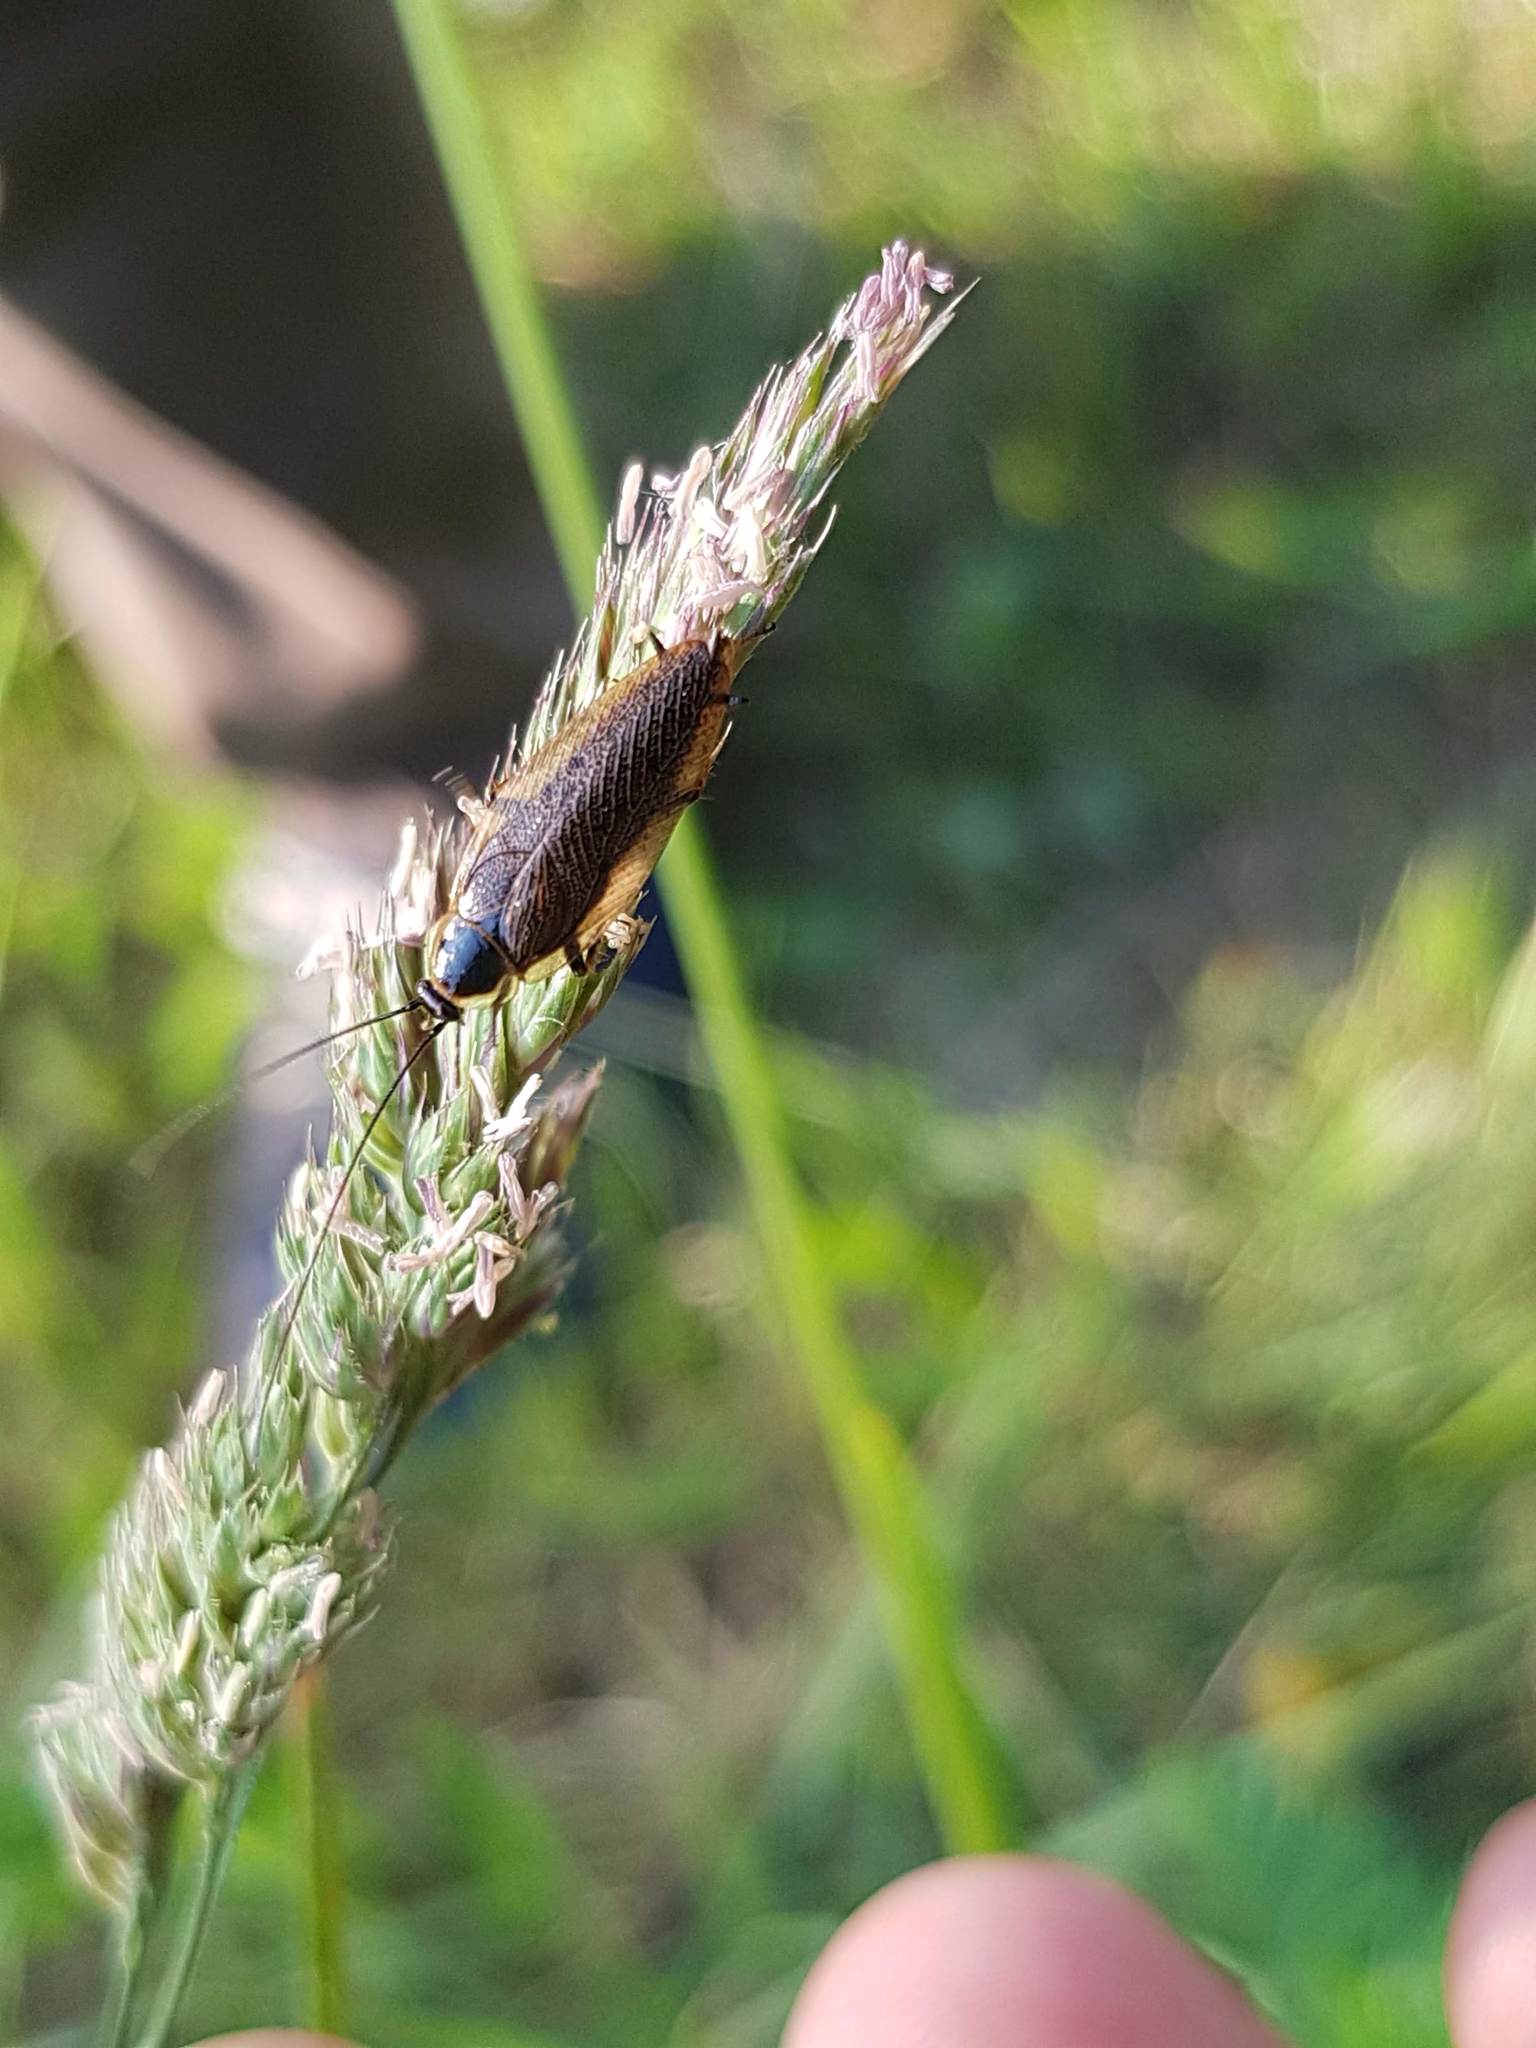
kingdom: Animalia
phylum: Arthropoda
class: Insecta
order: Blattodea
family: Ectobiidae
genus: Ectobius
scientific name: Ectobius lapponicus
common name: Dusky cockroach
